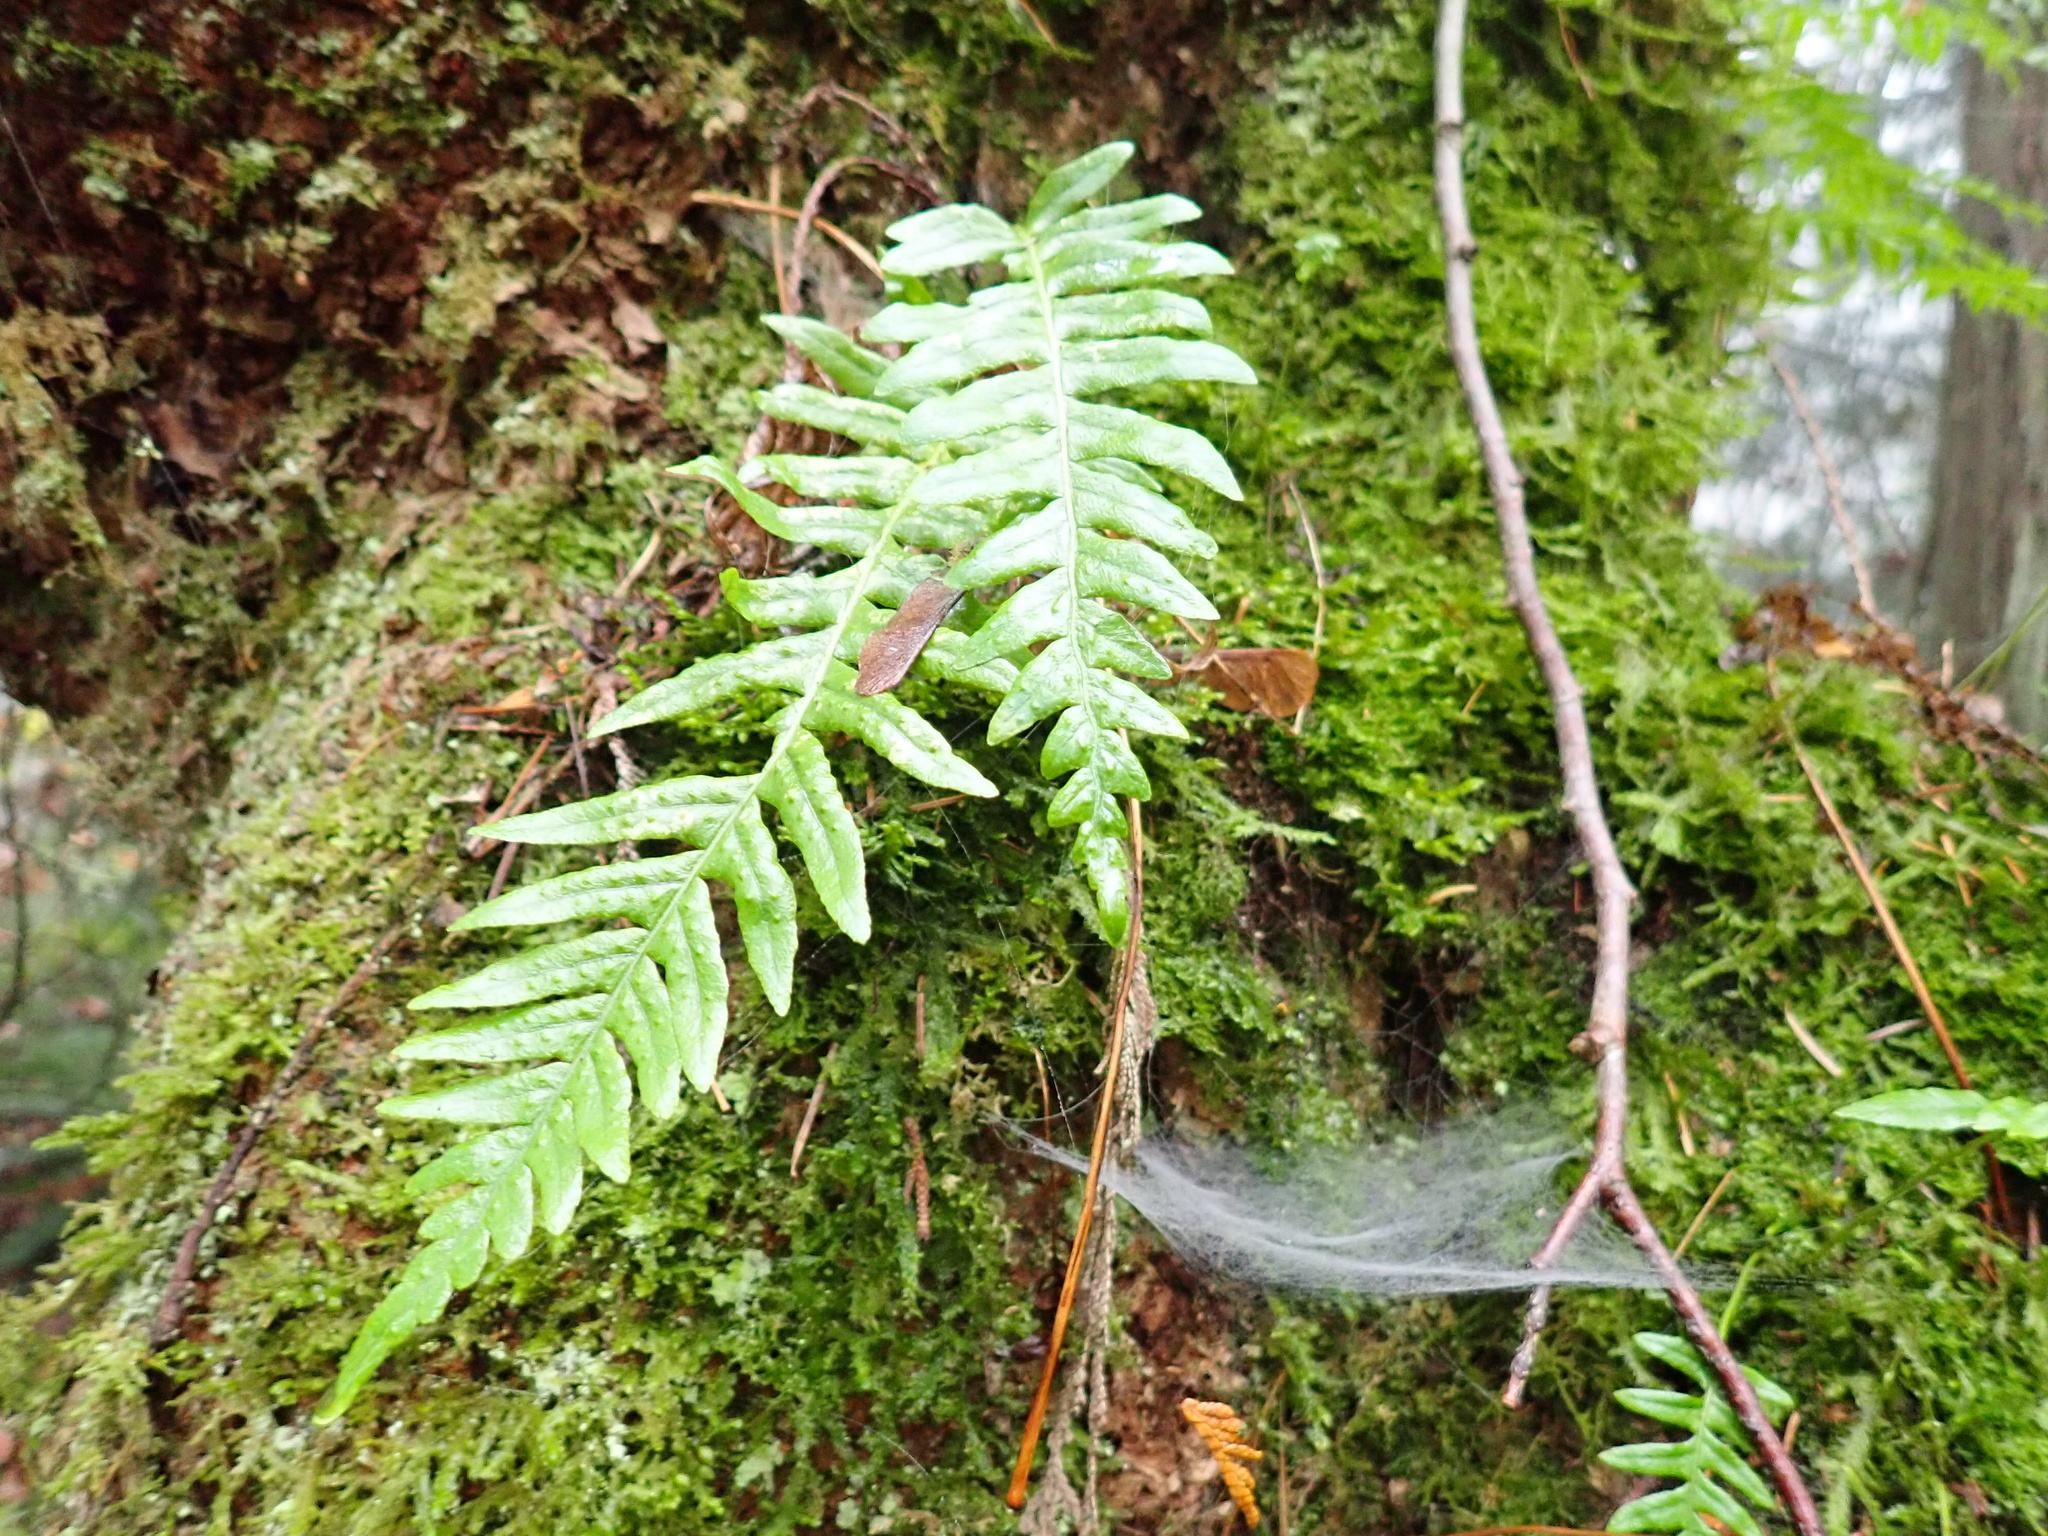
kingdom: Plantae
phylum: Tracheophyta
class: Polypodiopsida
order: Polypodiales
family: Polypodiaceae
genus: Polypodium
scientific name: Polypodium glycyrrhiza
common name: Licorice fern
